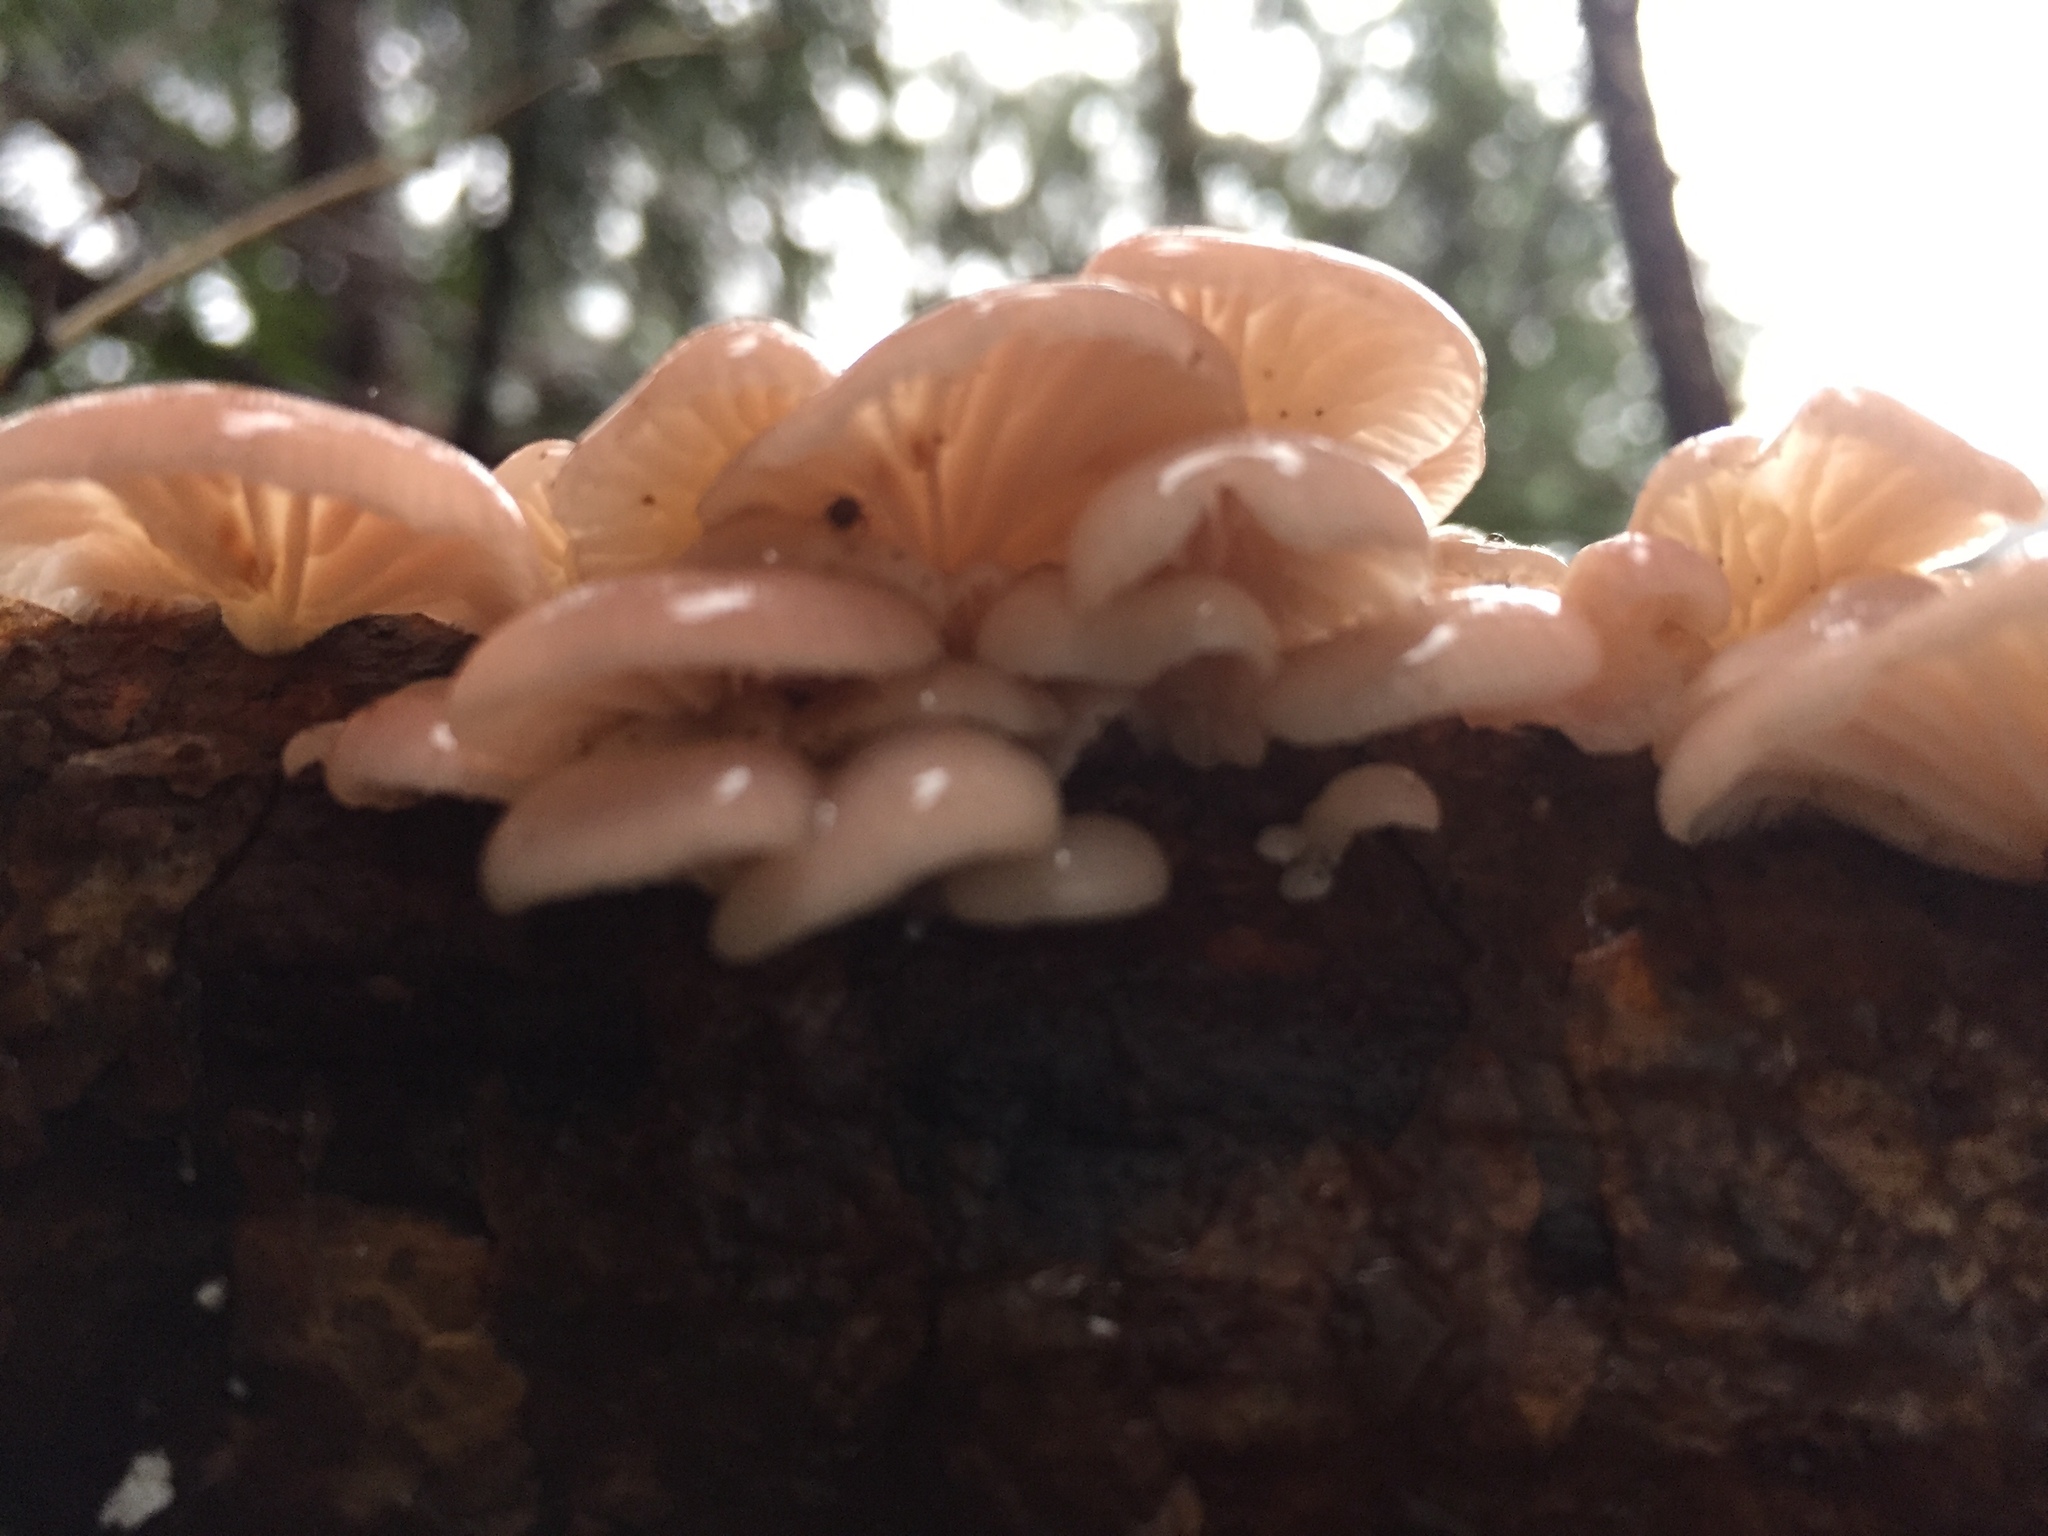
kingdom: Fungi
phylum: Basidiomycota
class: Agaricomycetes
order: Agaricales
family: Mycenaceae
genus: Panellus
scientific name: Panellus longinquus
